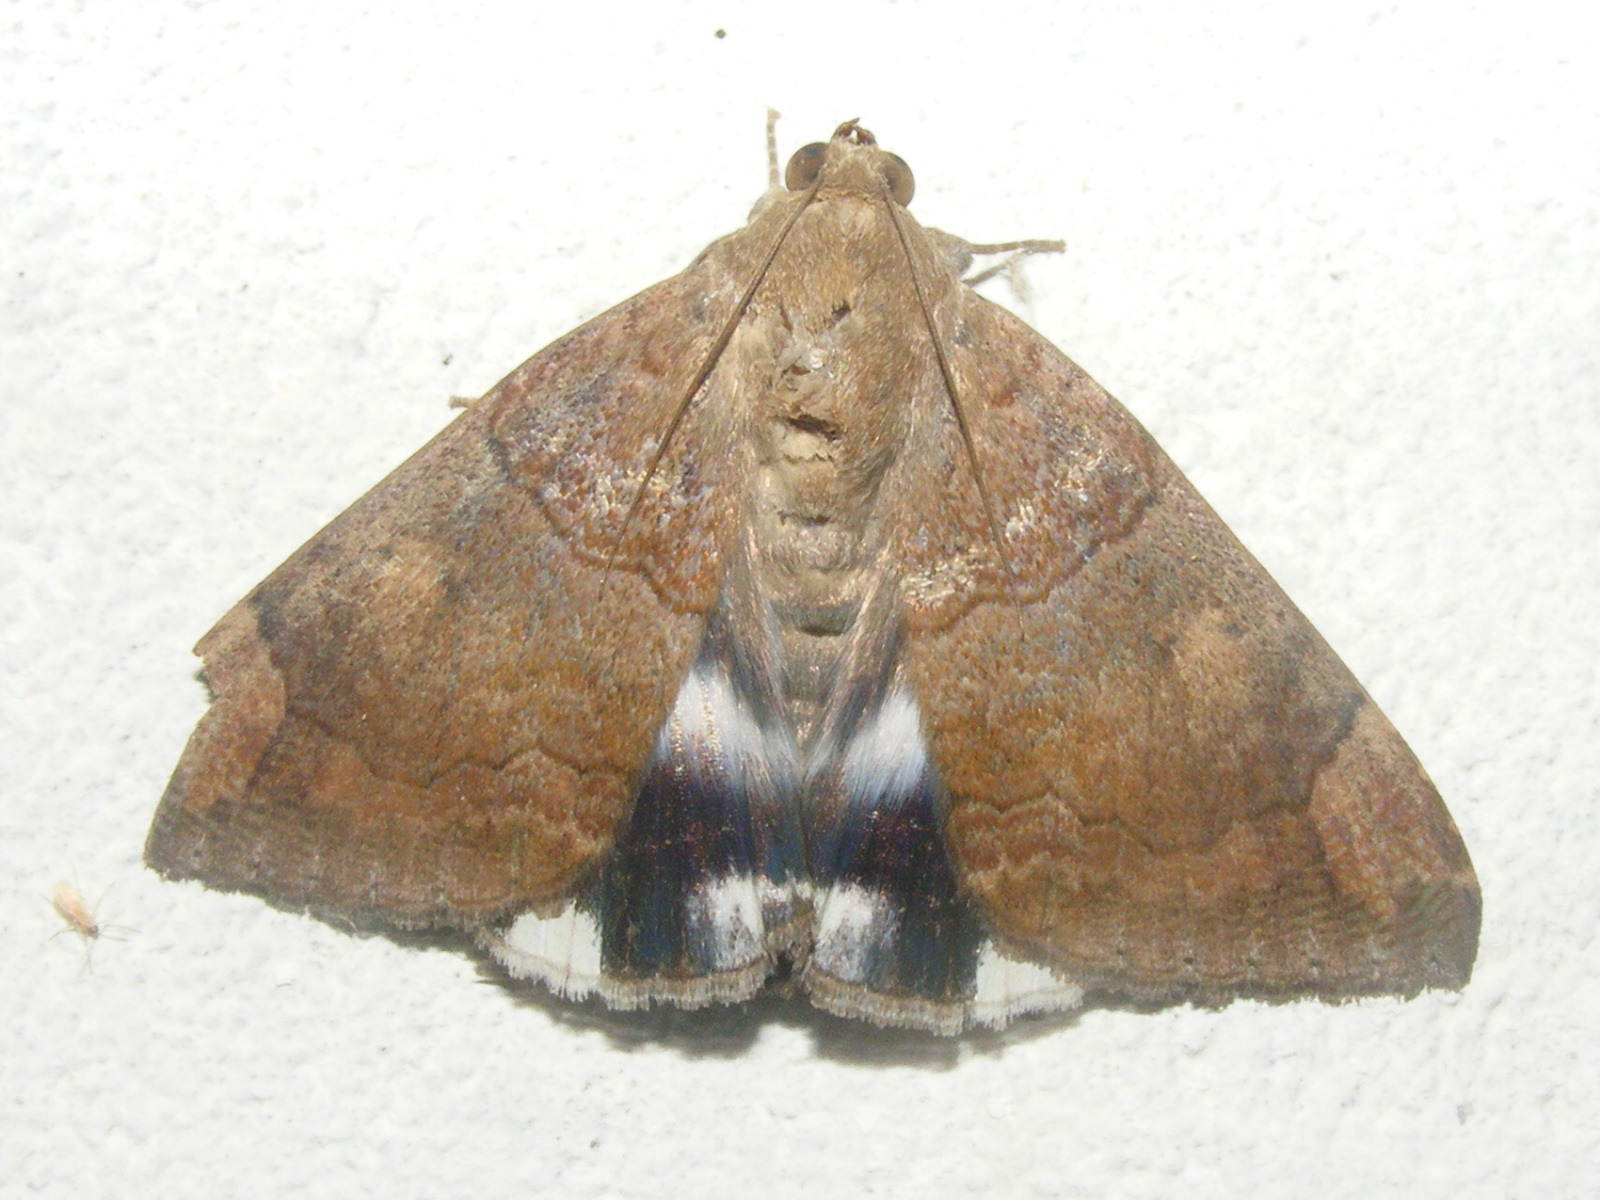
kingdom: Animalia
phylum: Arthropoda
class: Insecta
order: Lepidoptera
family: Erebidae
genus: Achaea
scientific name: Achaea janata
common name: Croton caterpillar
